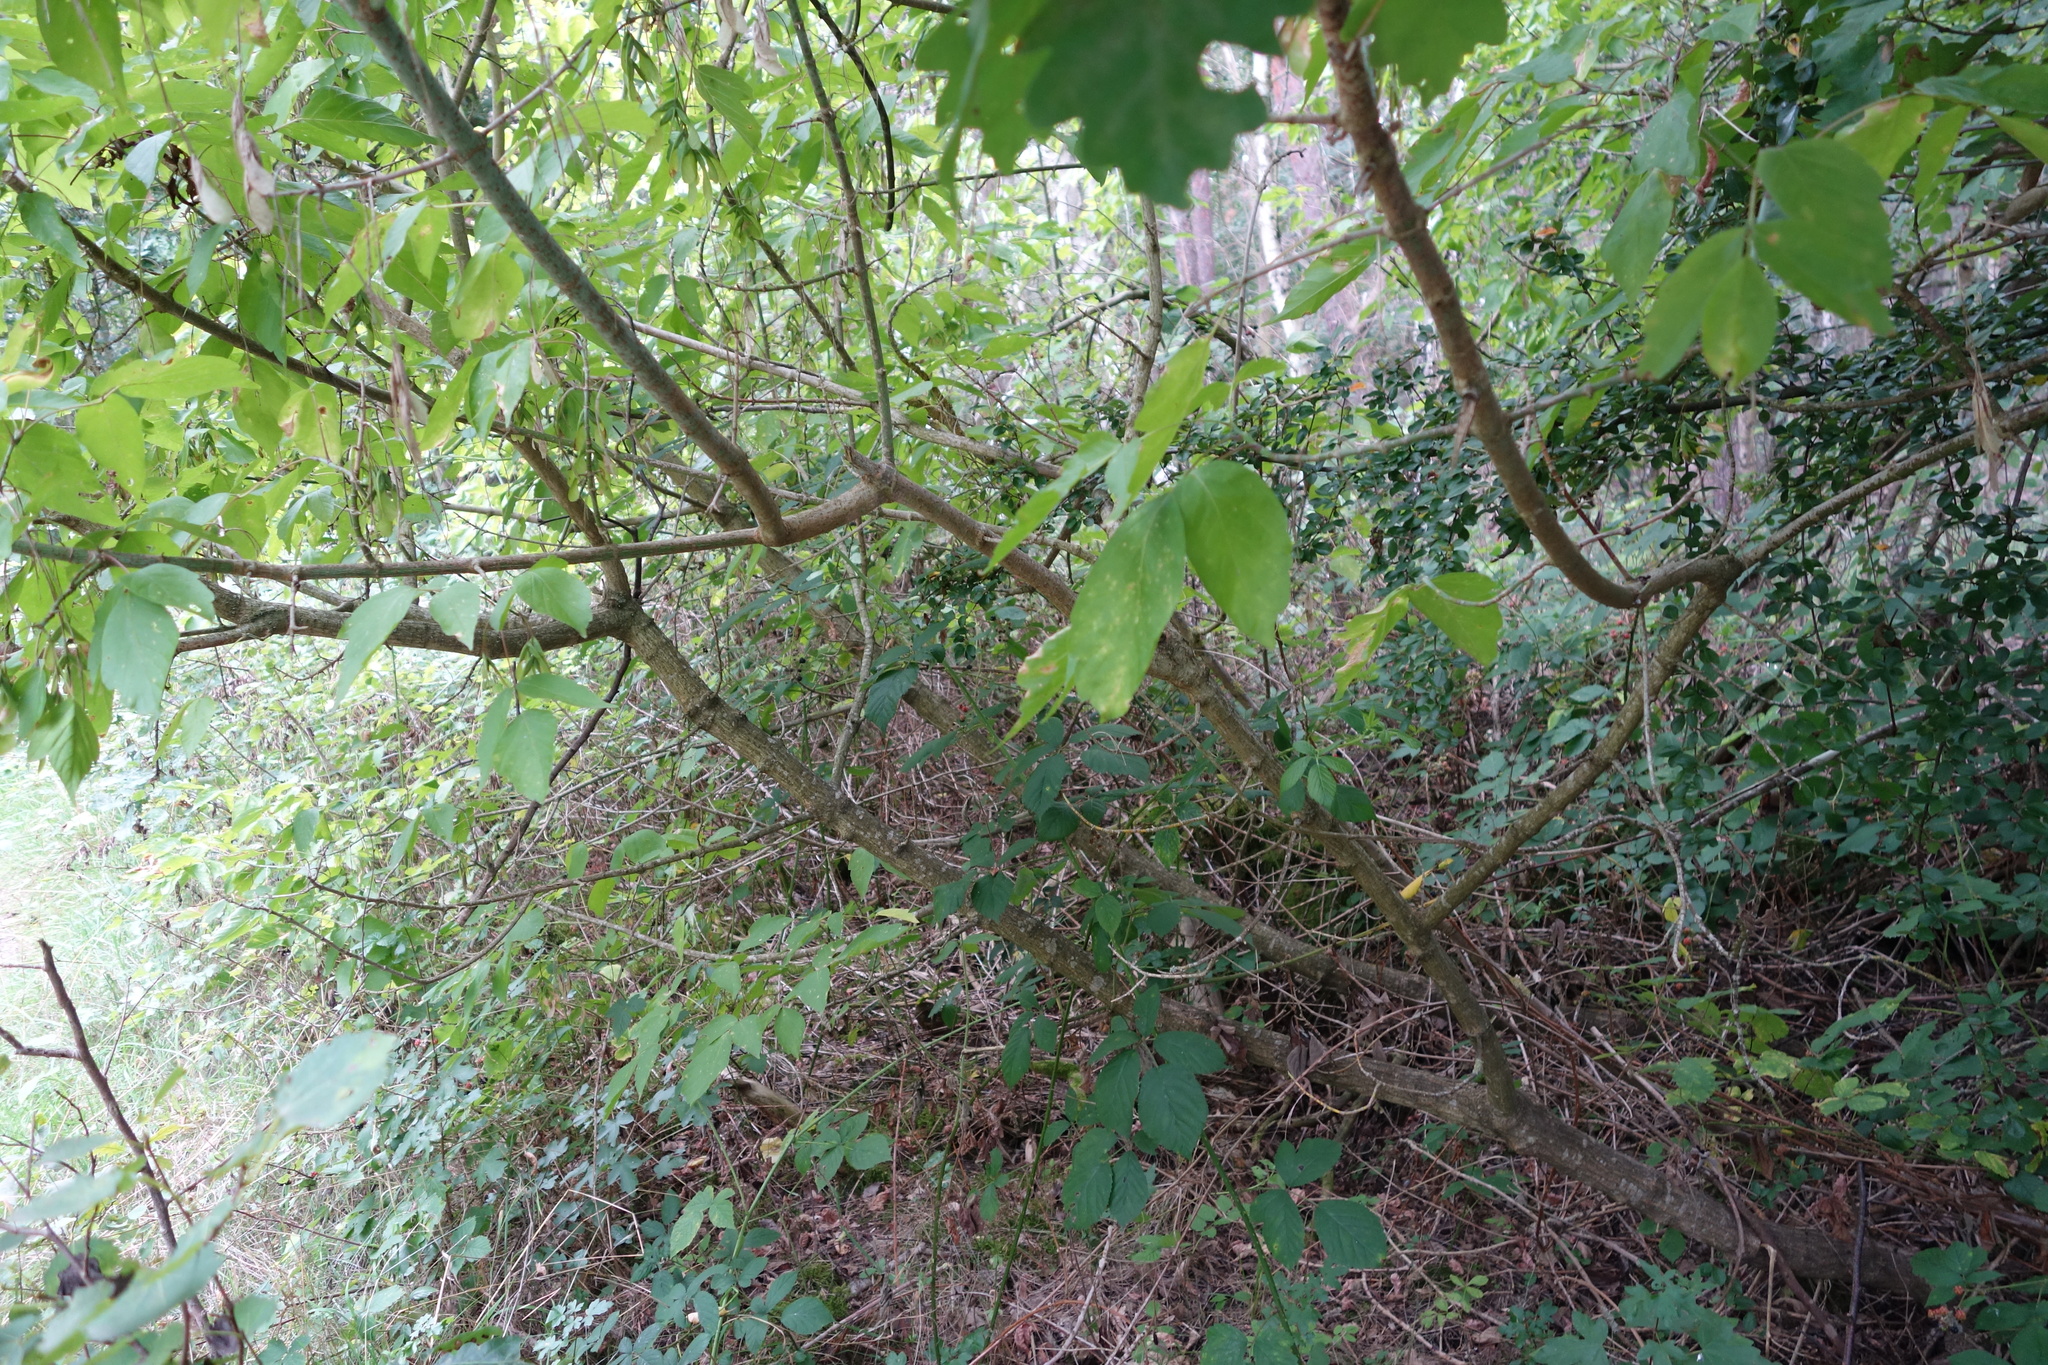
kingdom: Plantae
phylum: Tracheophyta
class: Magnoliopsida
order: Sapindales
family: Sapindaceae
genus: Acer
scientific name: Acer negundo
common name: Ashleaf maple
